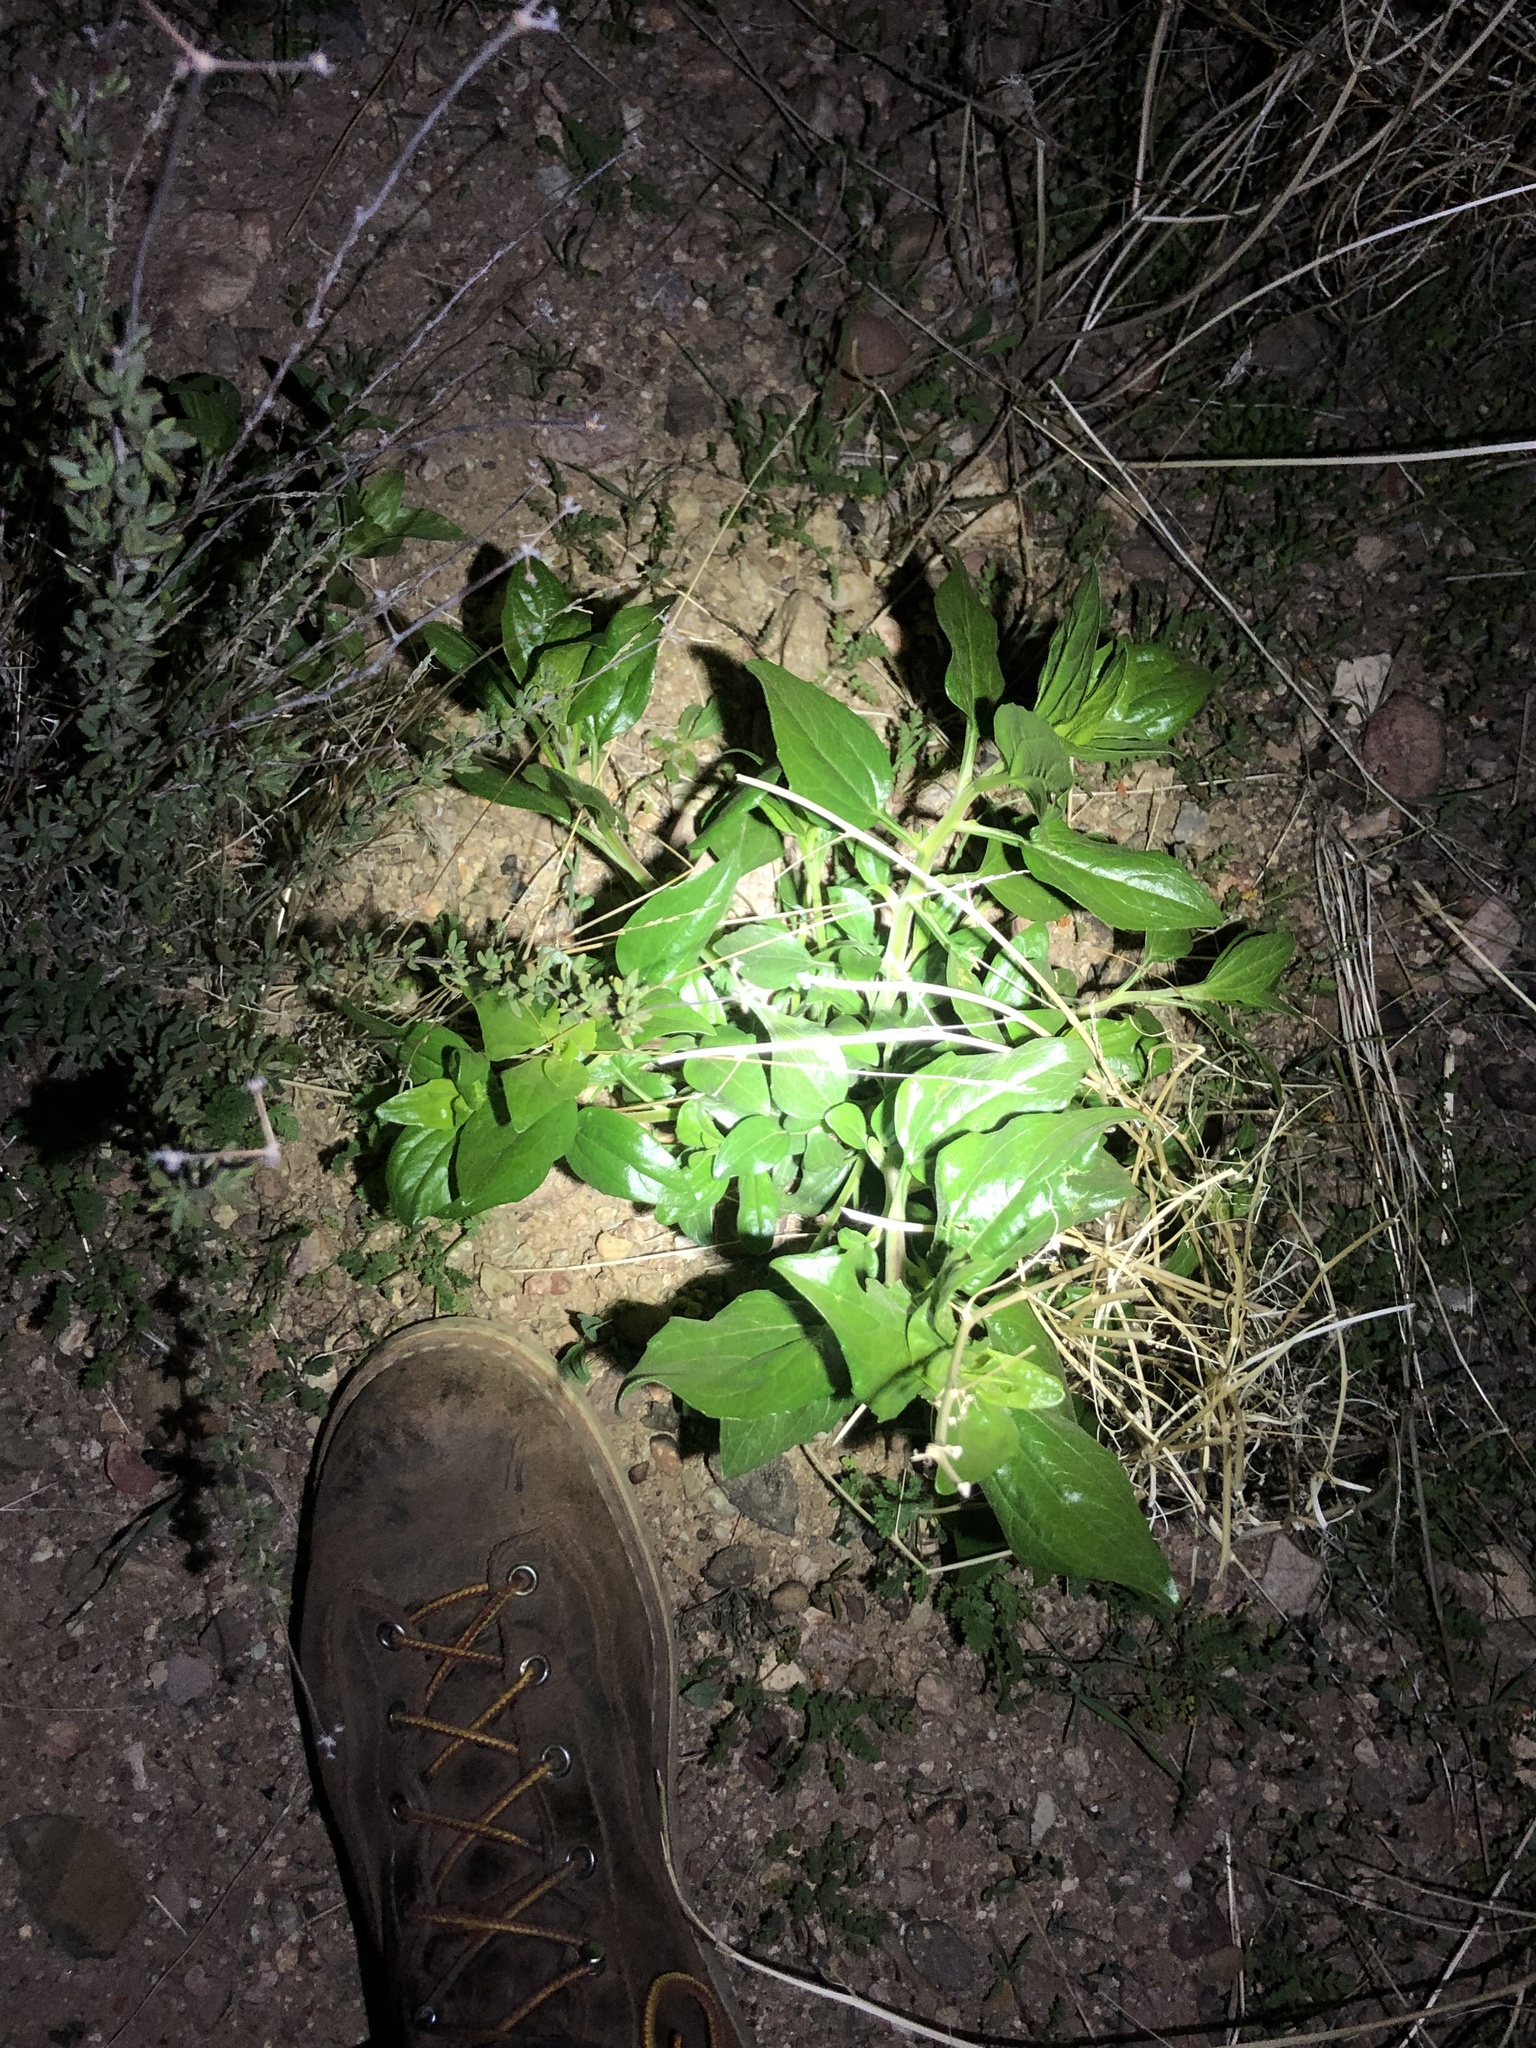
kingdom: Plantae
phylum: Tracheophyta
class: Magnoliopsida
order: Asterales
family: Asteraceae
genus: Encelia
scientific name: Encelia californica
